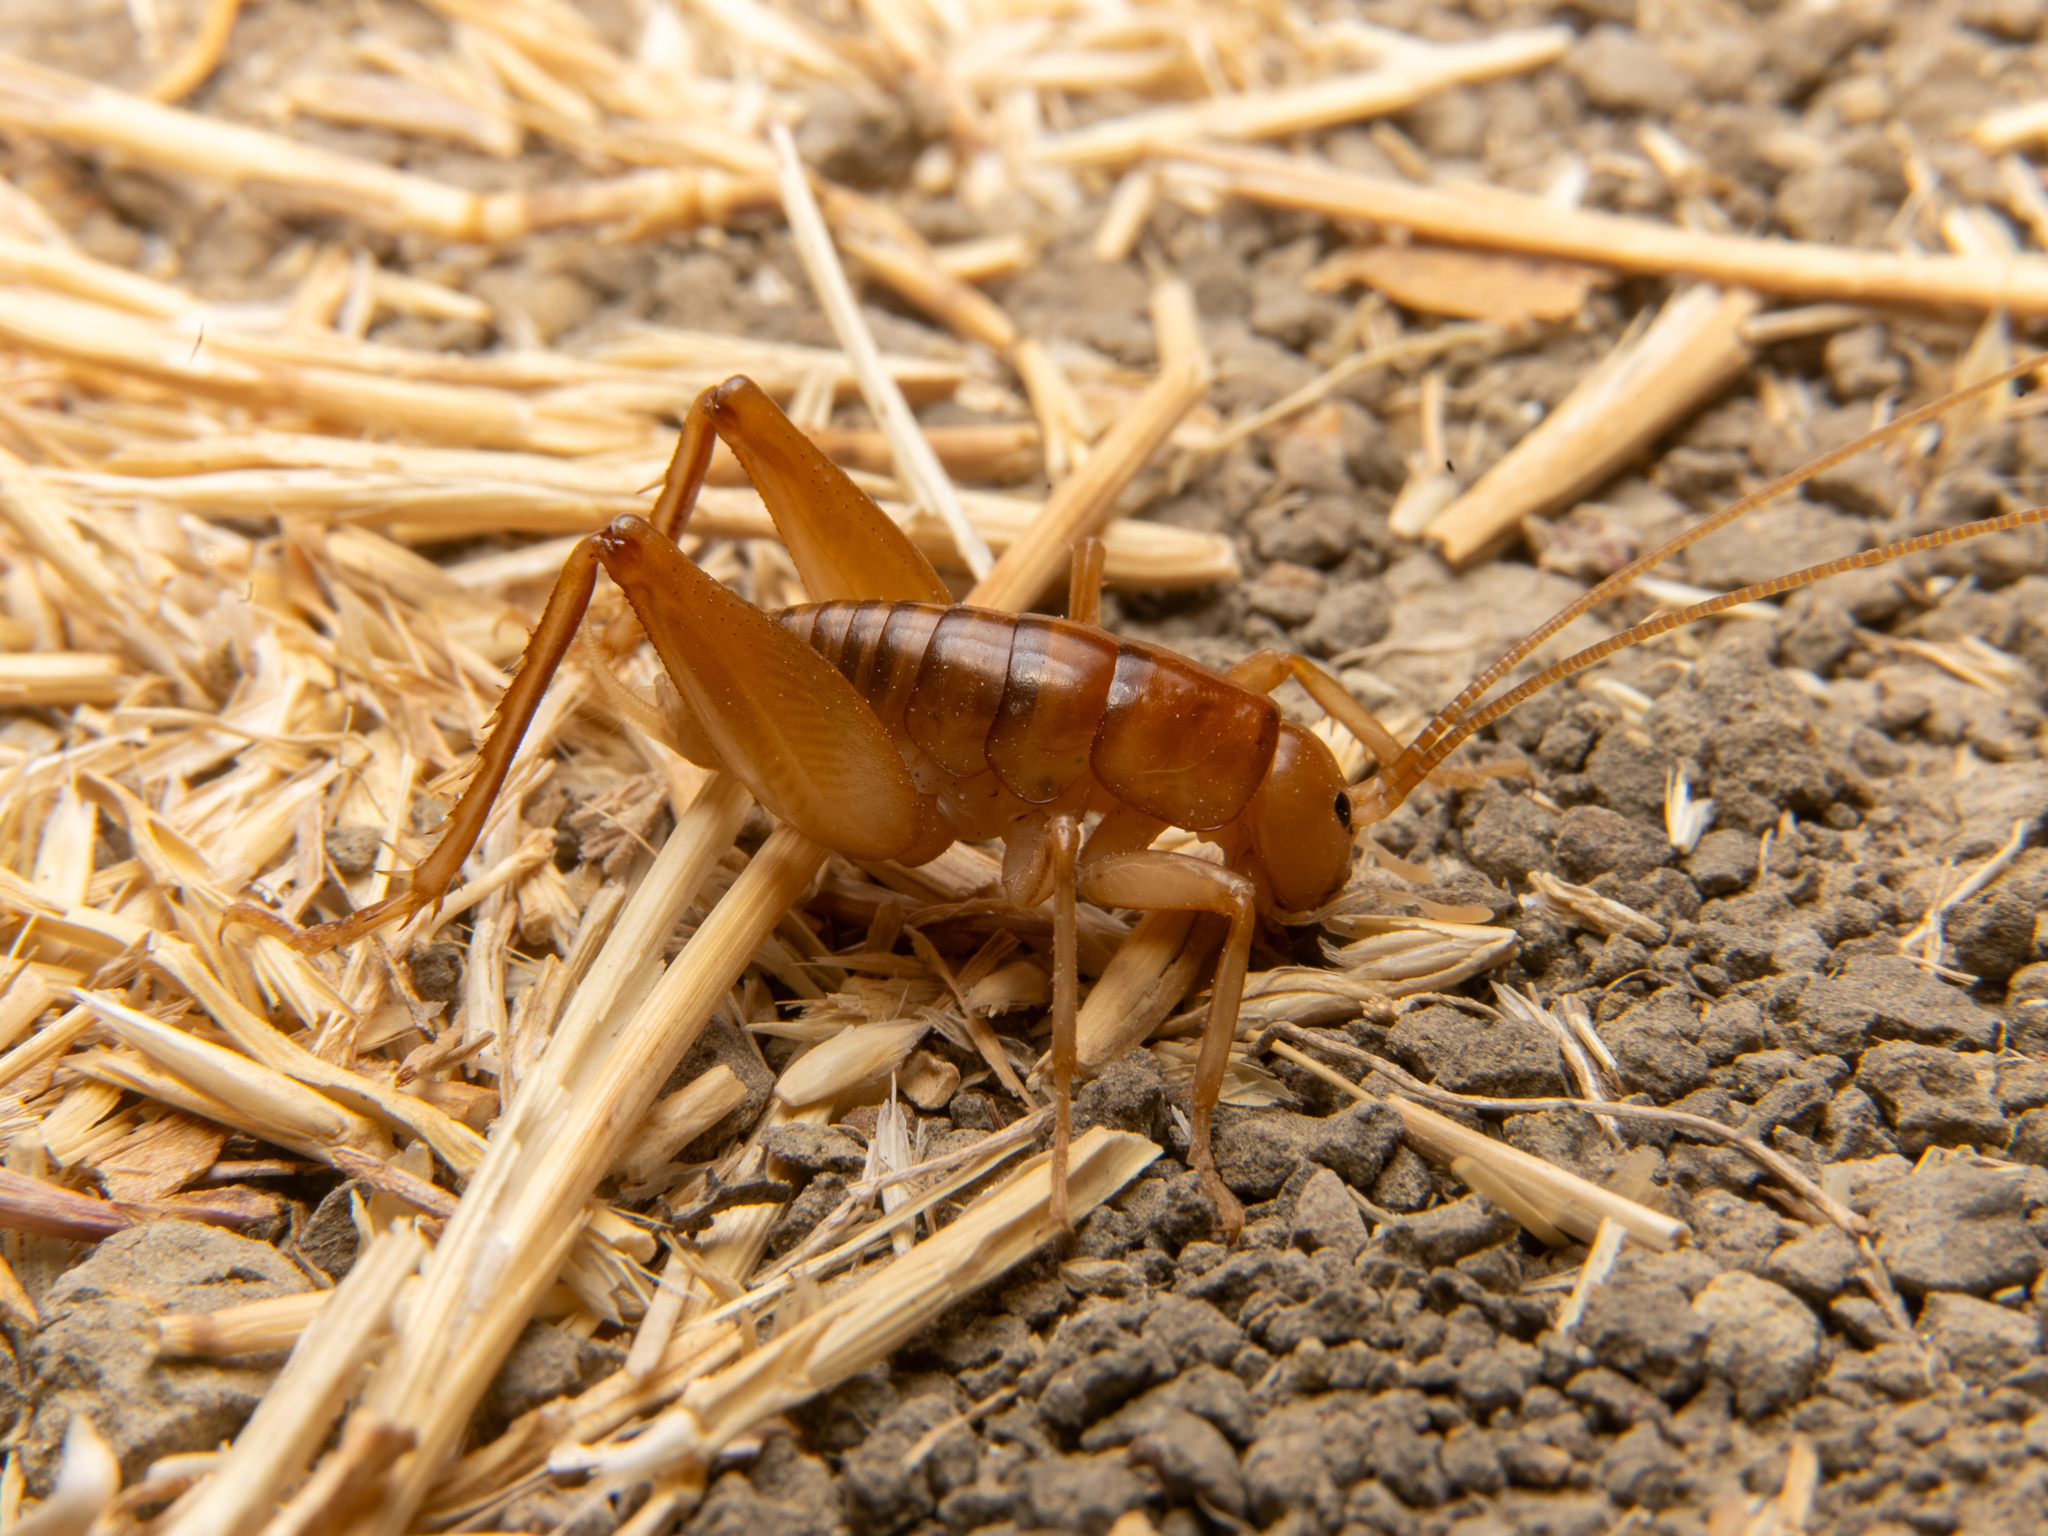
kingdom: Animalia
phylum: Arthropoda
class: Insecta
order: Orthoptera
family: Rhaphidophoridae
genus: Ceuthophilus
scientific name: Ceuthophilus californianus
